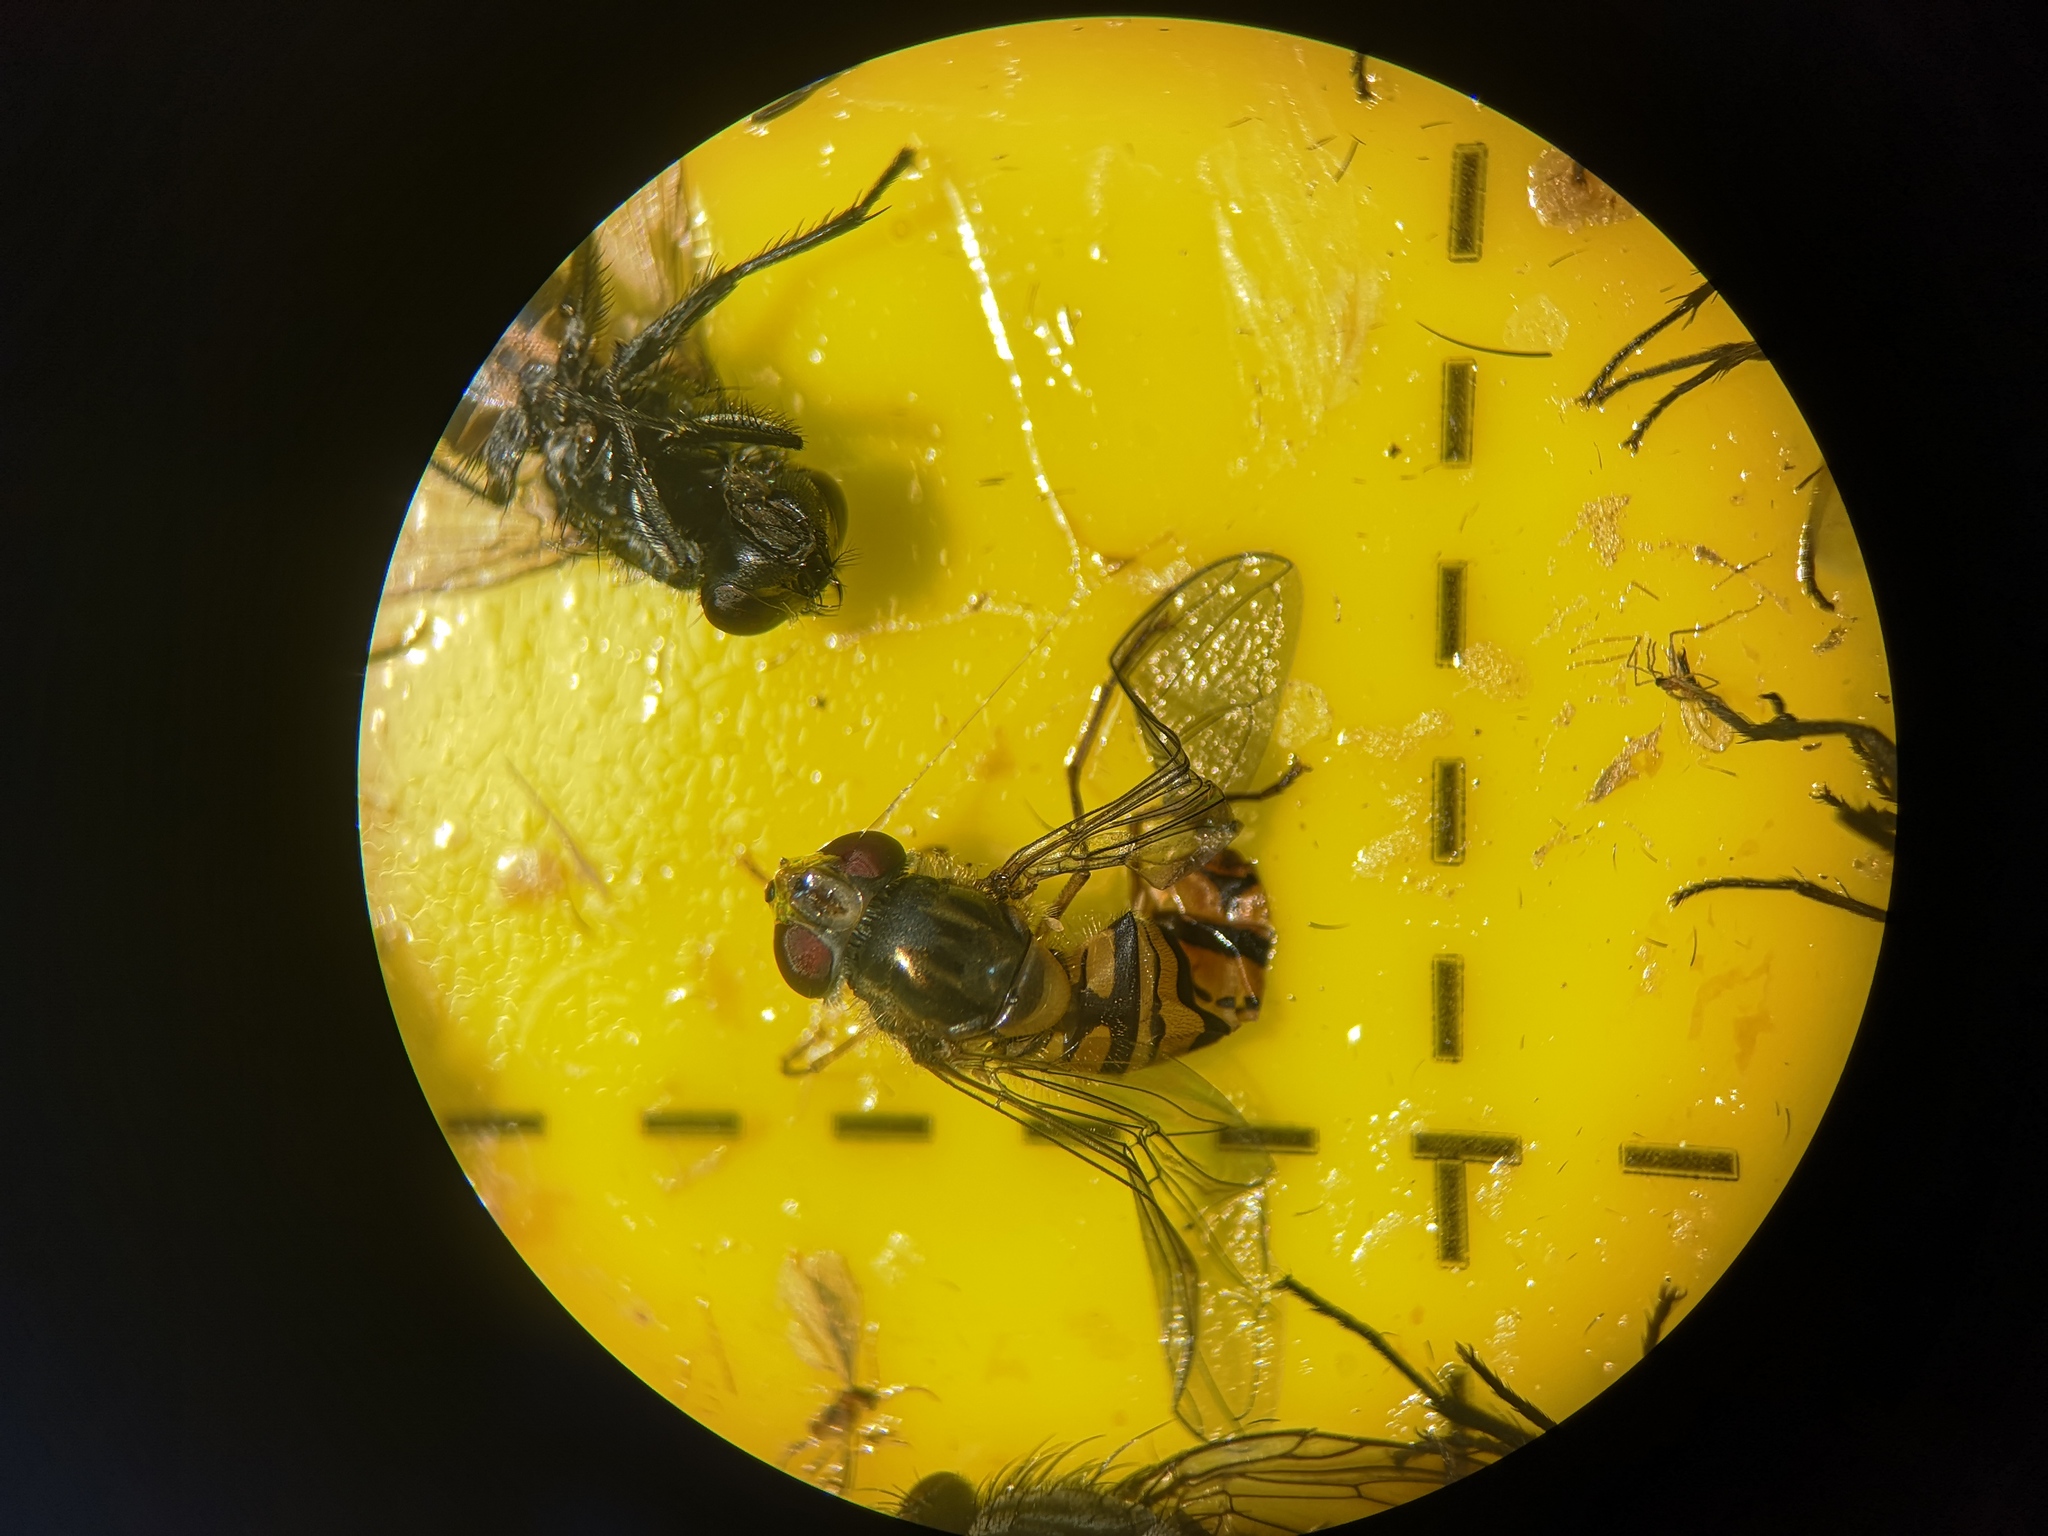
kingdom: Animalia
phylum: Arthropoda
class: Insecta
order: Diptera
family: Syrphidae
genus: Episyrphus
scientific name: Episyrphus balteatus
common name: Marmalade hoverfly
